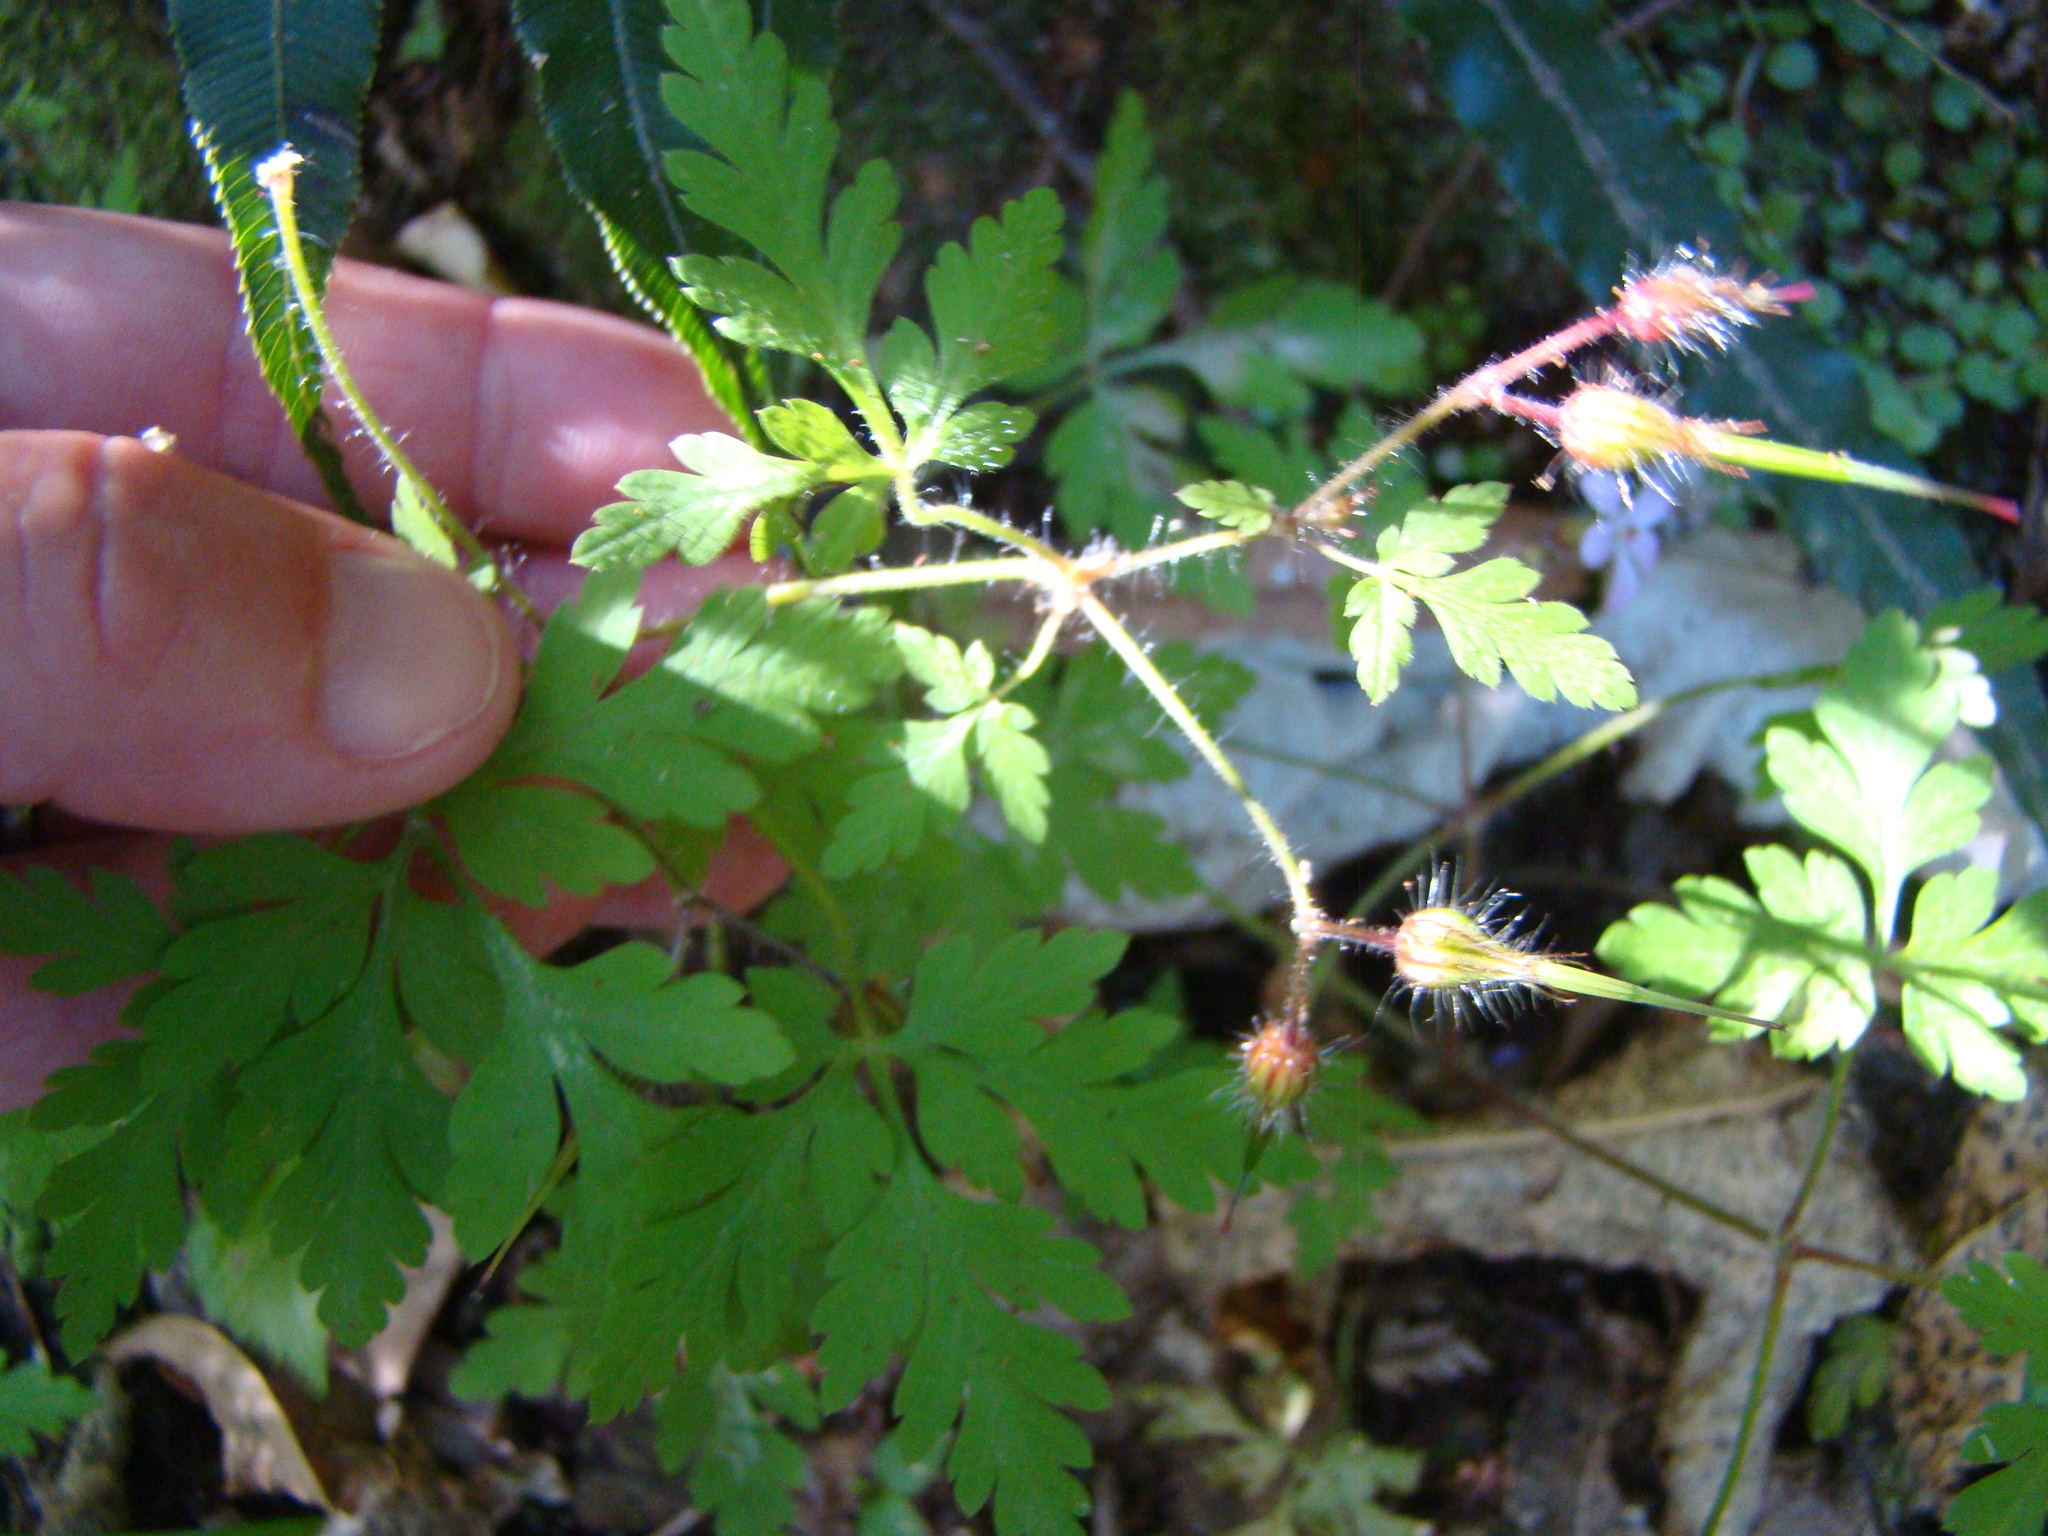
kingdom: Plantae
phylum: Tracheophyta
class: Magnoliopsida
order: Geraniales
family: Geraniaceae
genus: Geranium
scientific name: Geranium robertianum
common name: Herb-robert
